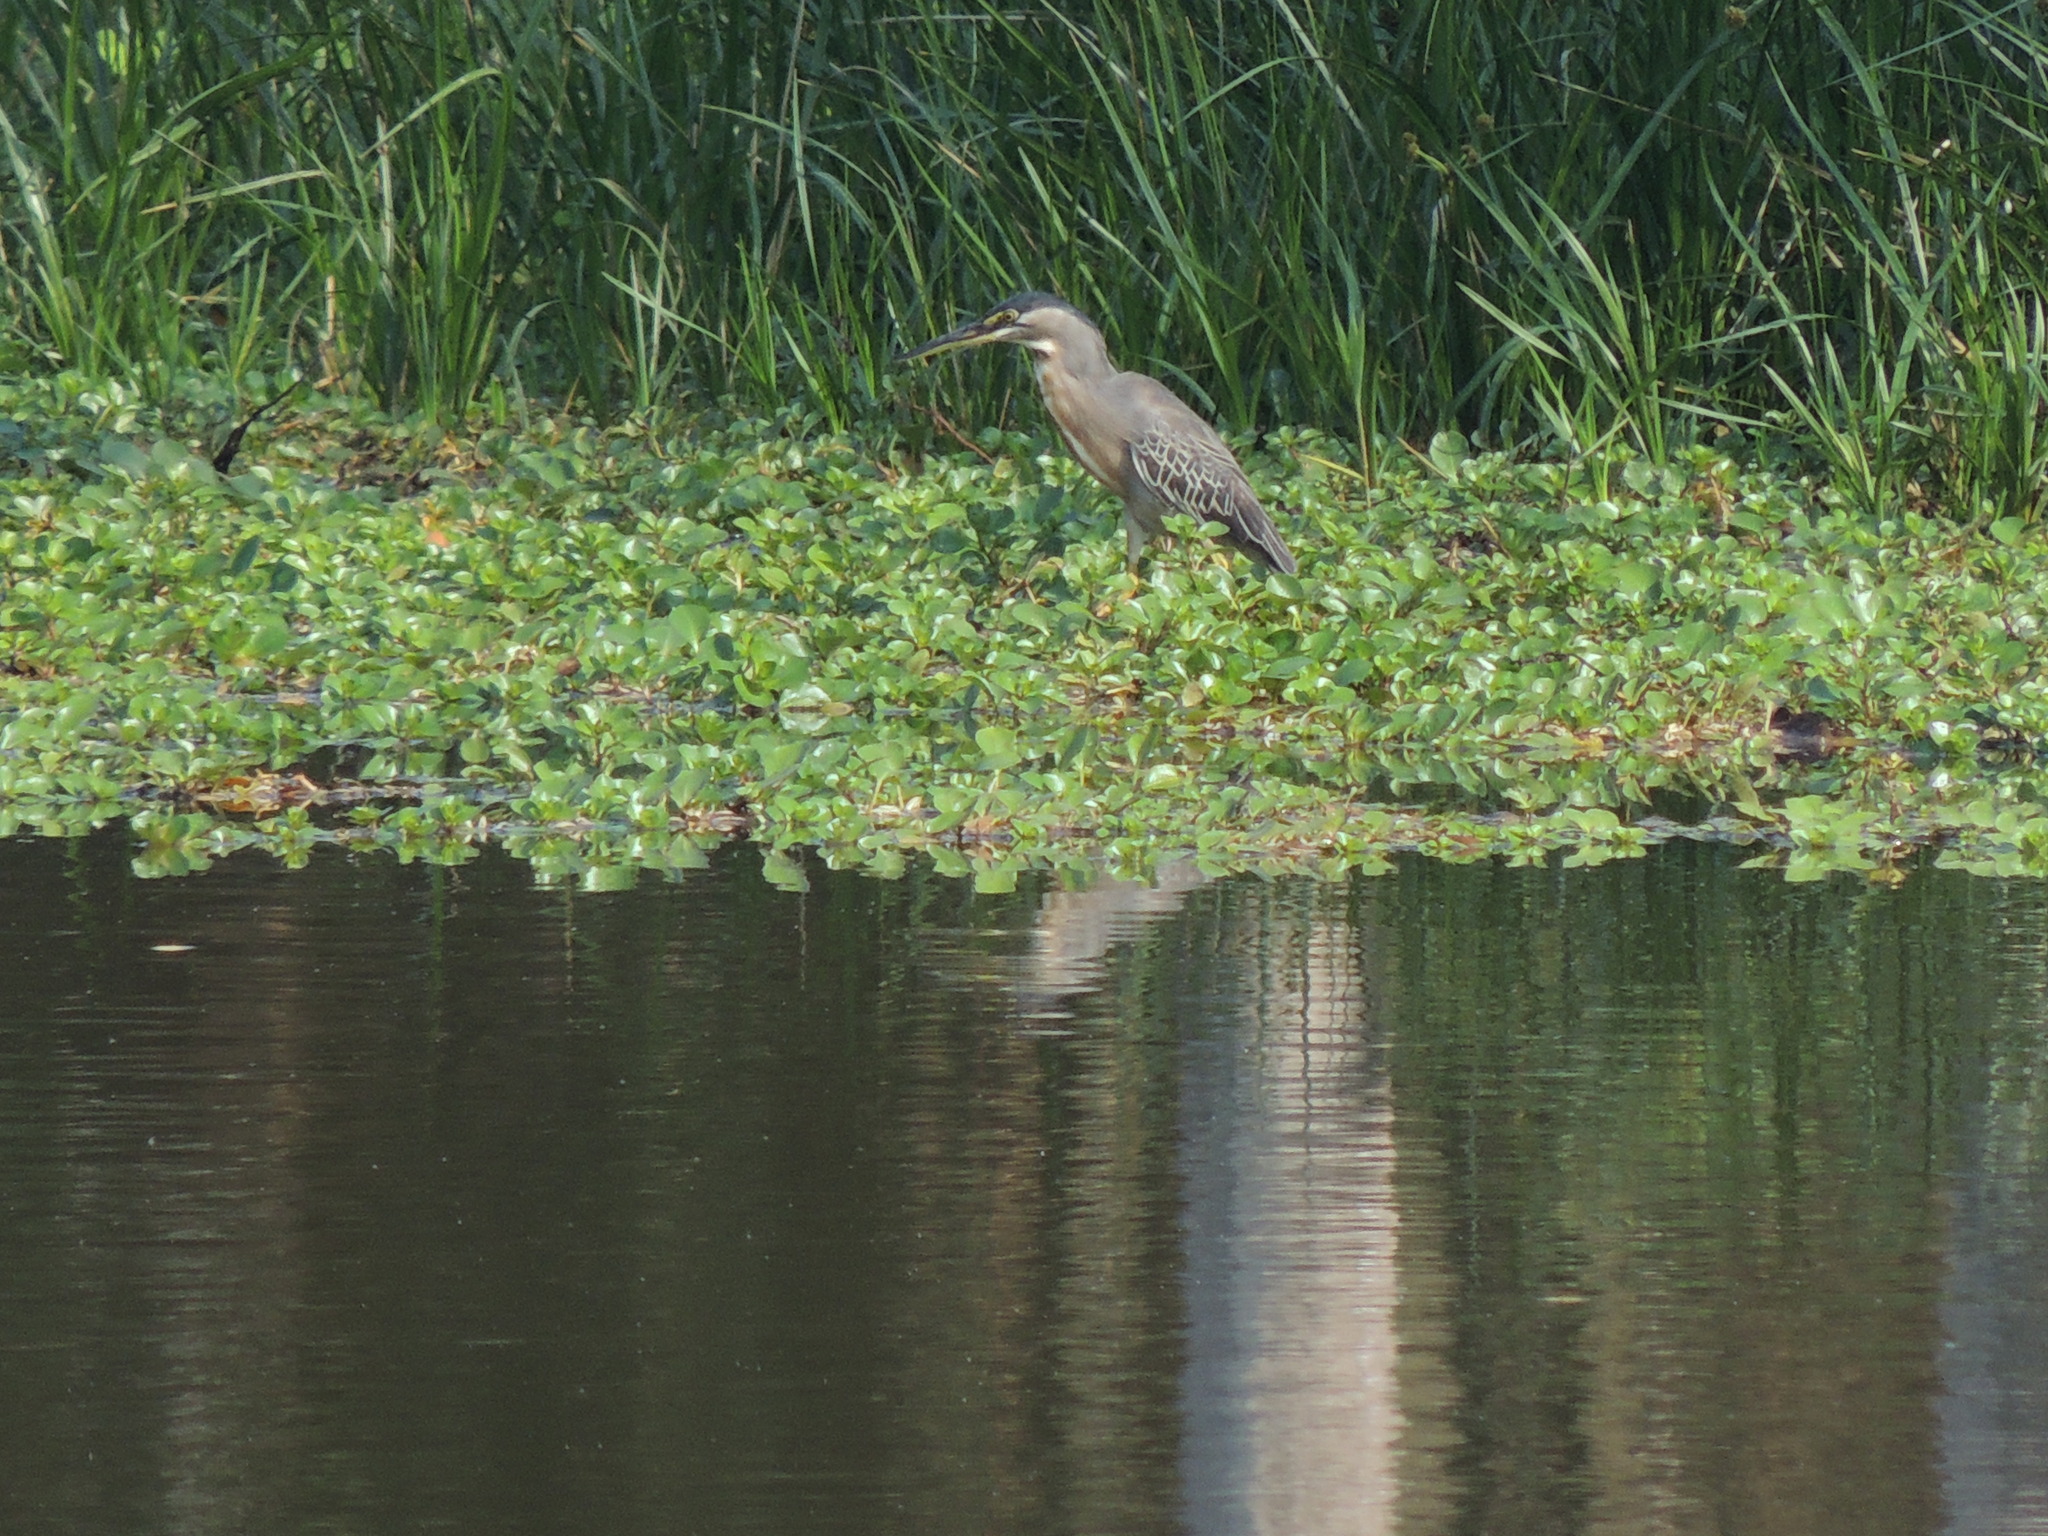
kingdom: Animalia
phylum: Chordata
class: Aves
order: Pelecaniformes
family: Ardeidae
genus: Butorides
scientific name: Butorides striata
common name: Striated heron
